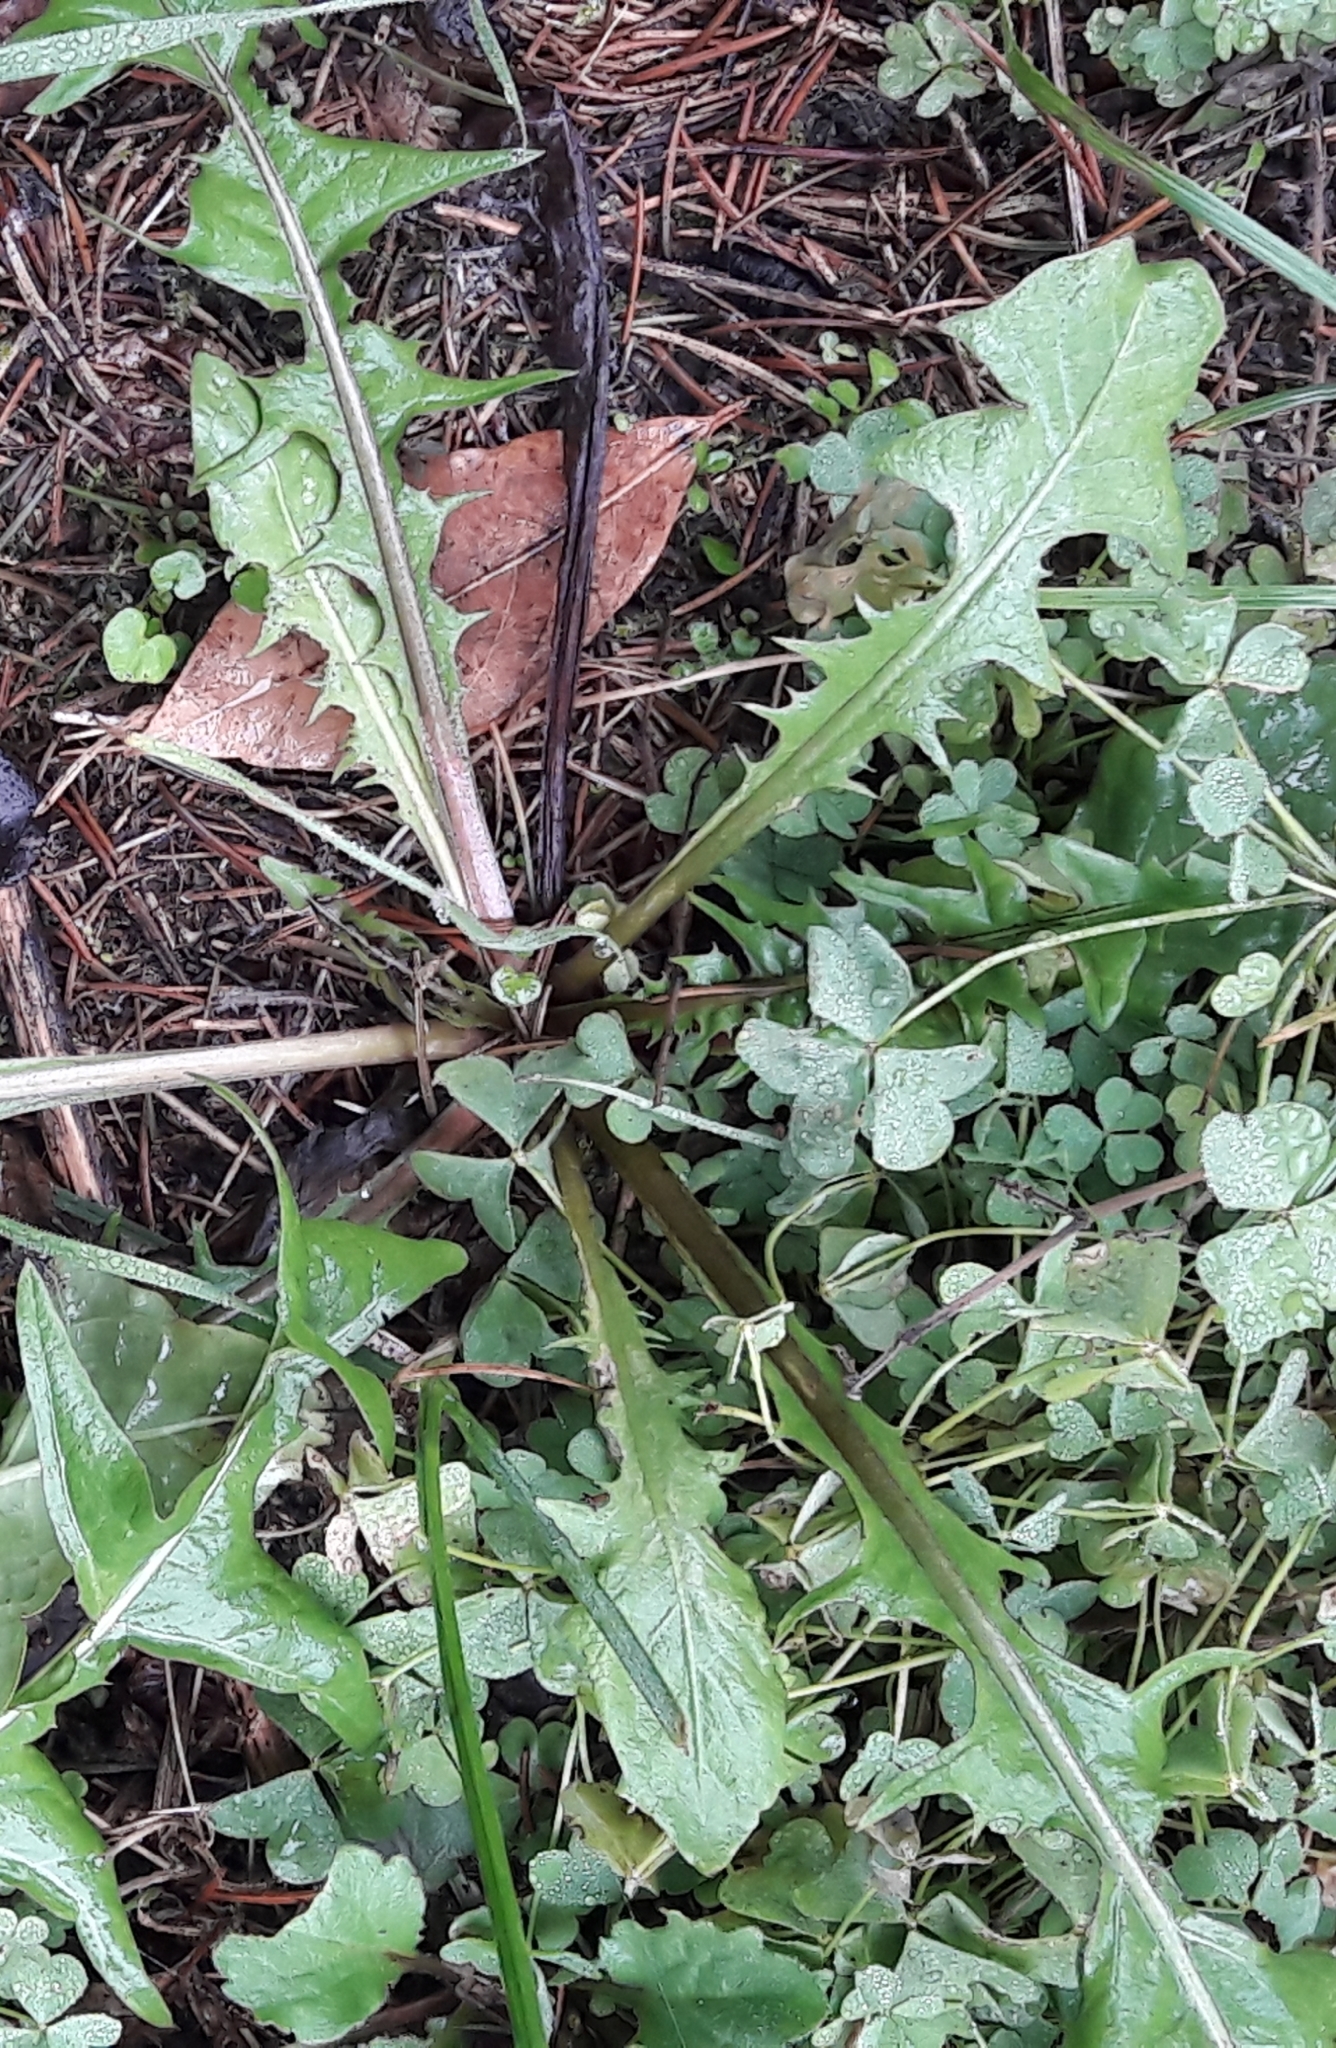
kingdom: Plantae
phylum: Tracheophyta
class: Magnoliopsida
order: Asterales
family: Asteraceae
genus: Taraxacum
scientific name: Taraxacum officinale
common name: Common dandelion
